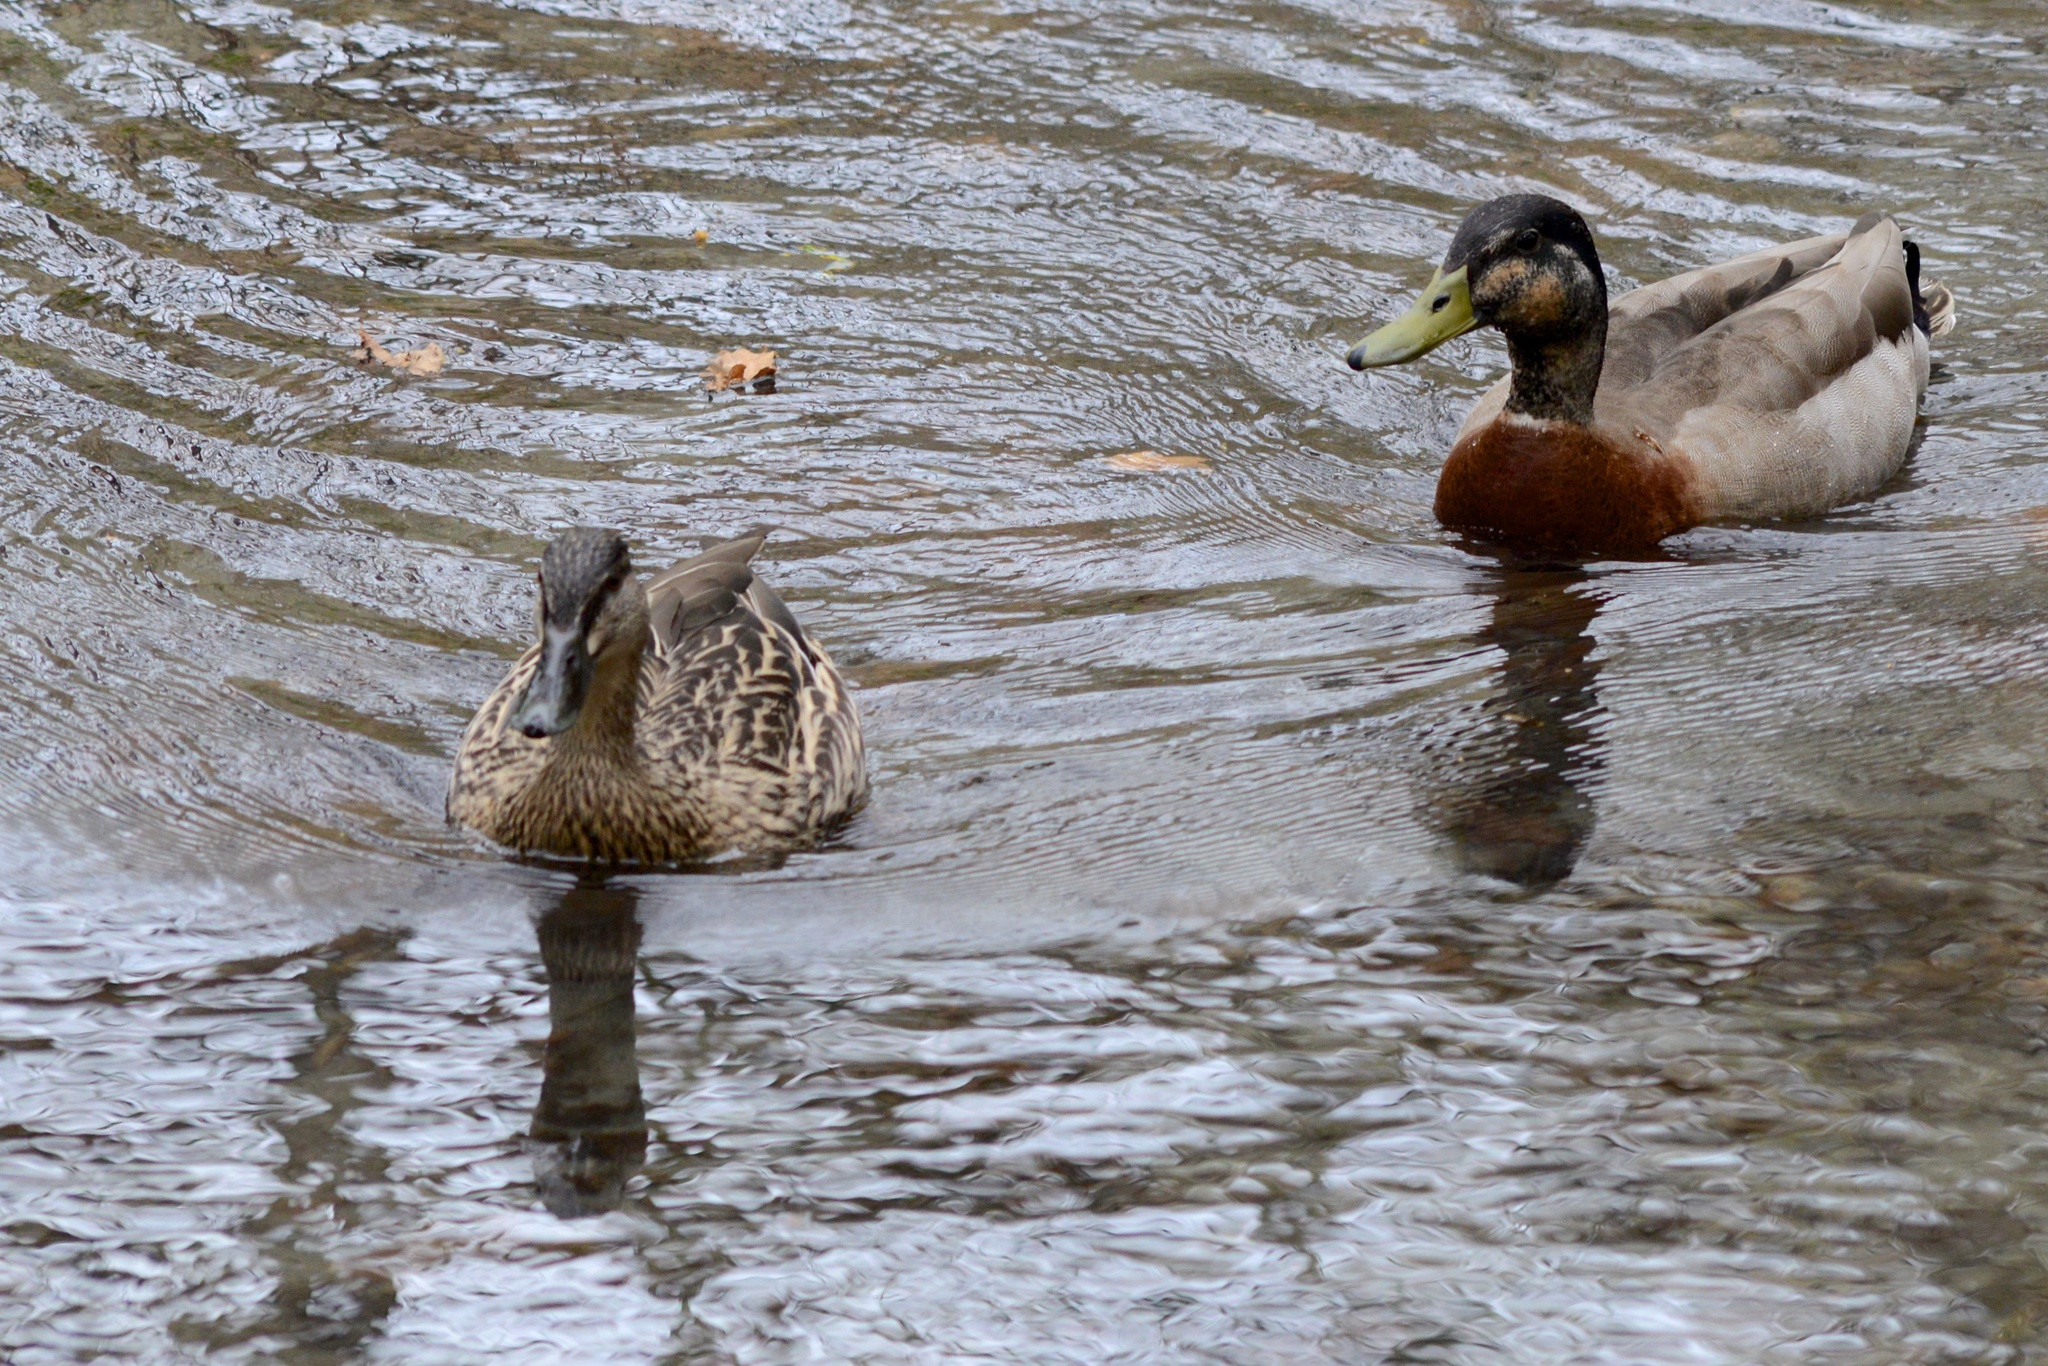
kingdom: Animalia
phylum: Chordata
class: Aves
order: Anseriformes
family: Anatidae
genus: Anas
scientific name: Anas
